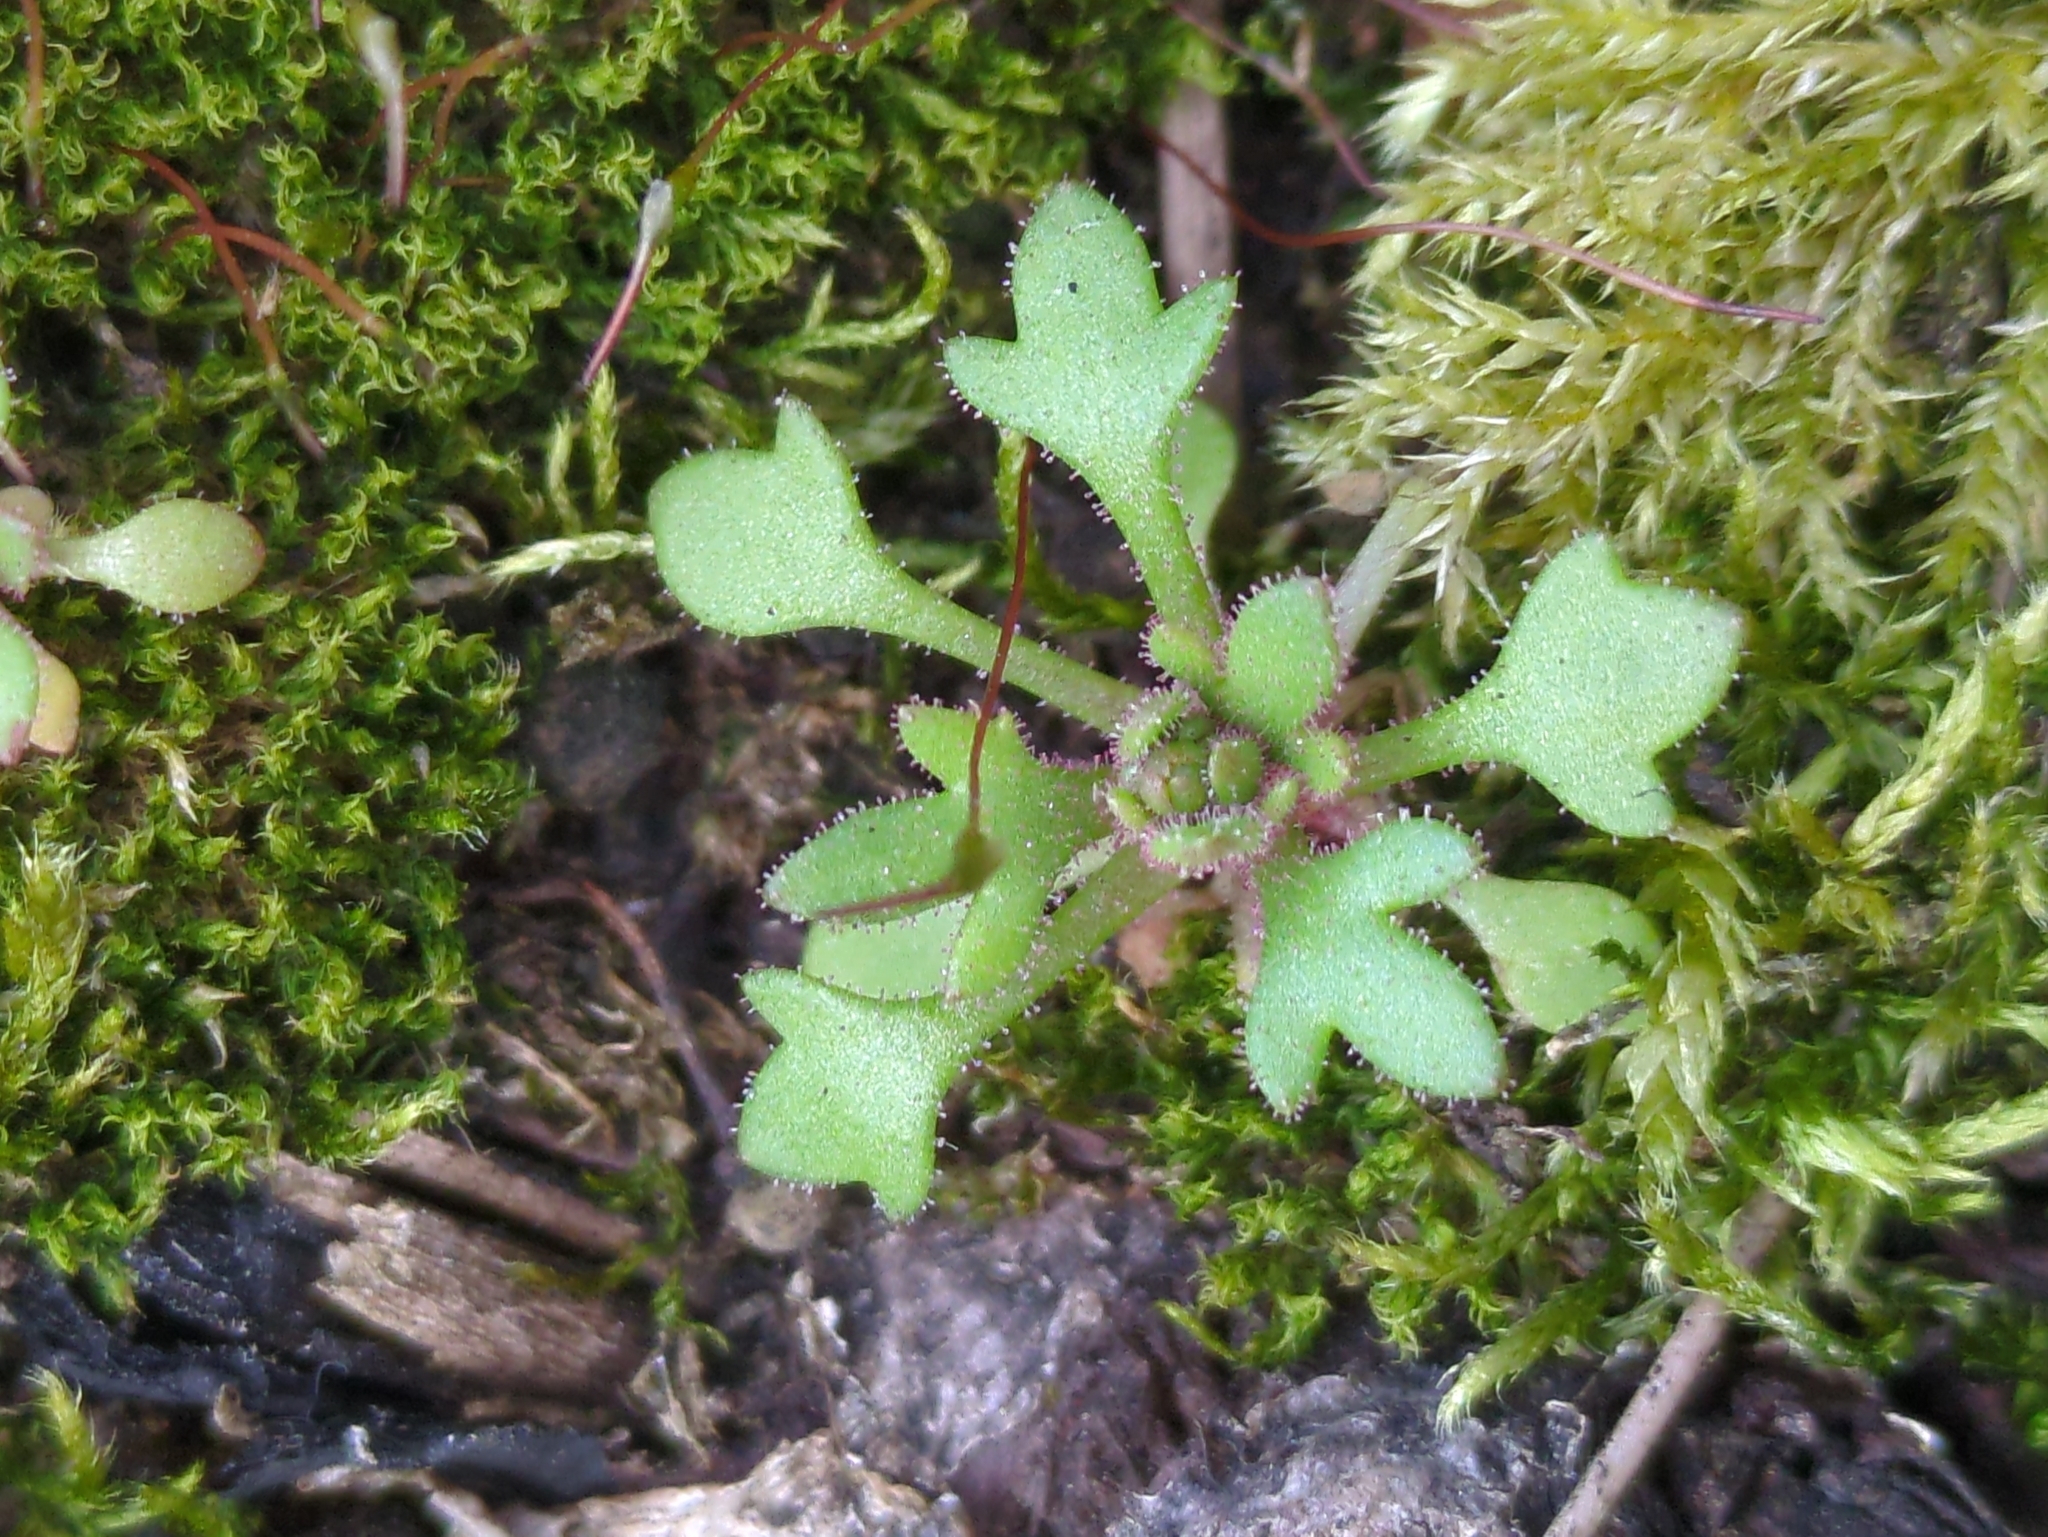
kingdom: Plantae
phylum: Tracheophyta
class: Magnoliopsida
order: Saxifragales
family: Saxifragaceae
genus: Saxifraga
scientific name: Saxifraga tridactylites
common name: Rue-leaved saxifrage
